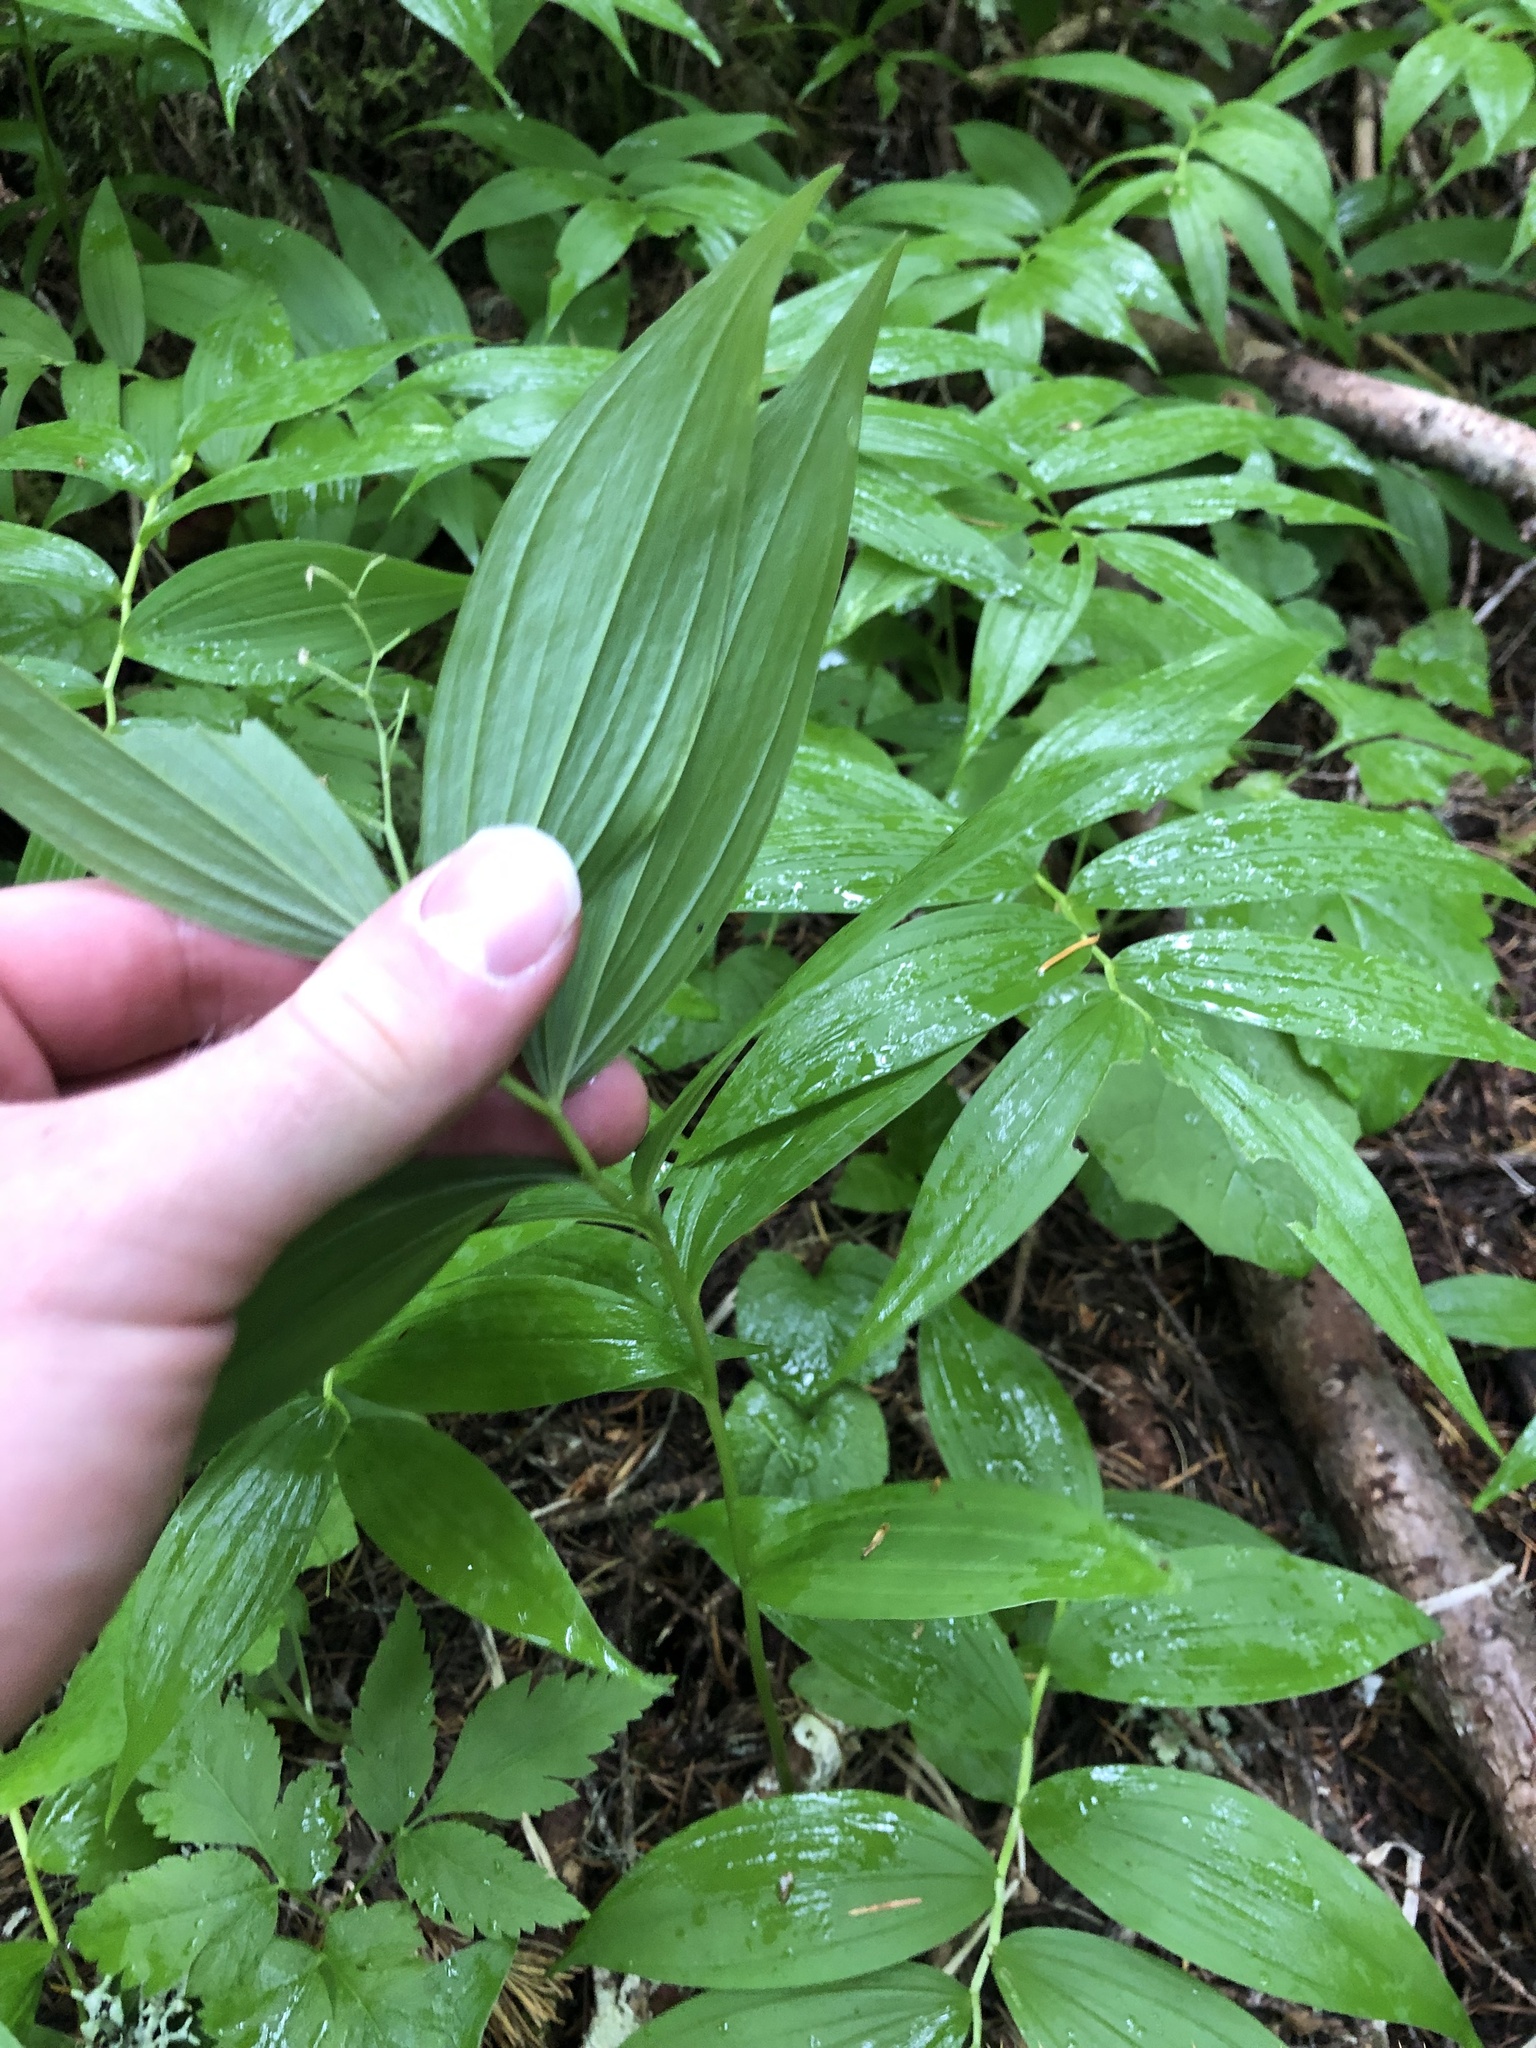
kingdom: Plantae
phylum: Tracheophyta
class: Liliopsida
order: Asparagales
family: Asparagaceae
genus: Maianthemum
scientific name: Maianthemum stellatum
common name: Little false solomon's seal
